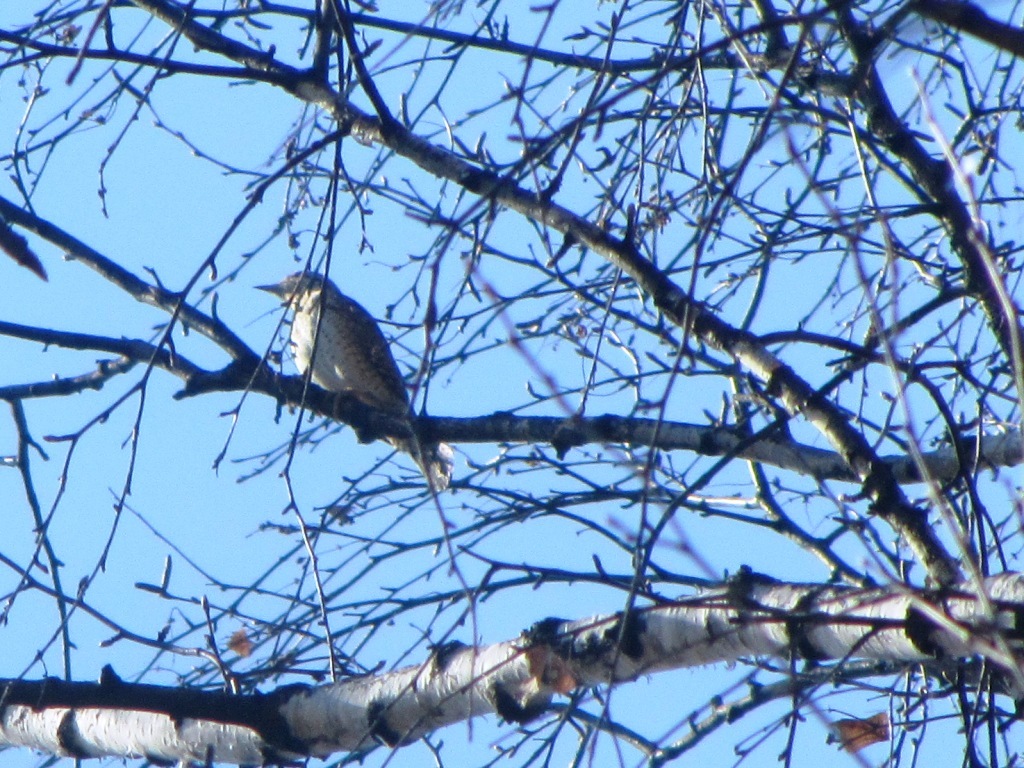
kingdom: Animalia
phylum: Chordata
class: Aves
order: Piciformes
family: Picidae
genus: Jynx
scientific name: Jynx torquilla
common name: Eurasian wryneck
